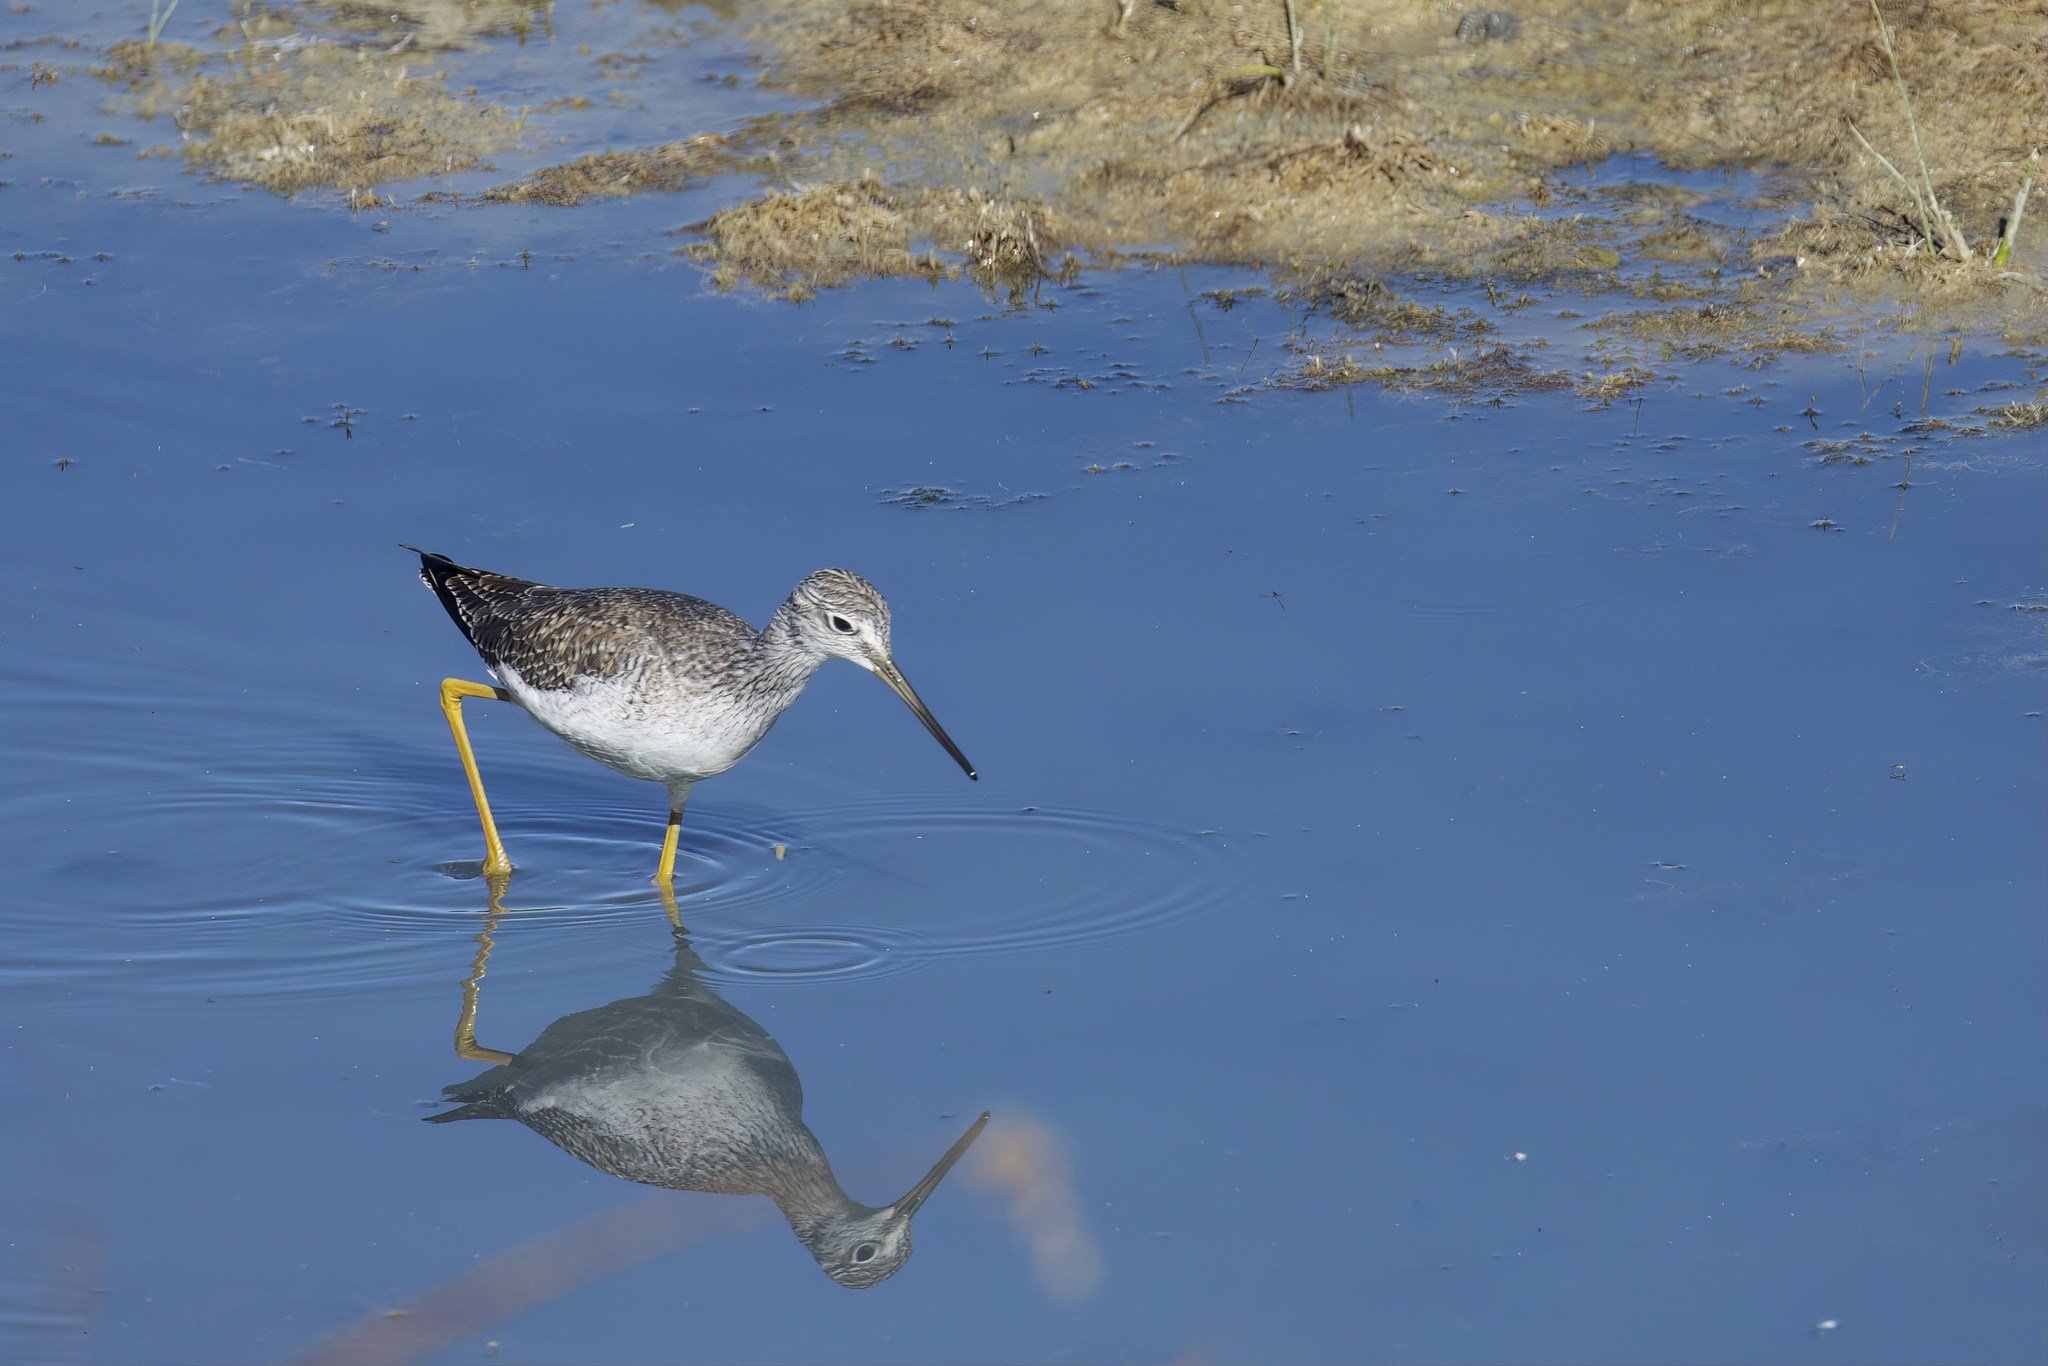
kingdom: Animalia
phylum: Chordata
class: Aves
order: Charadriiformes
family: Scolopacidae
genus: Tringa
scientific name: Tringa melanoleuca
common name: Greater yellowlegs
